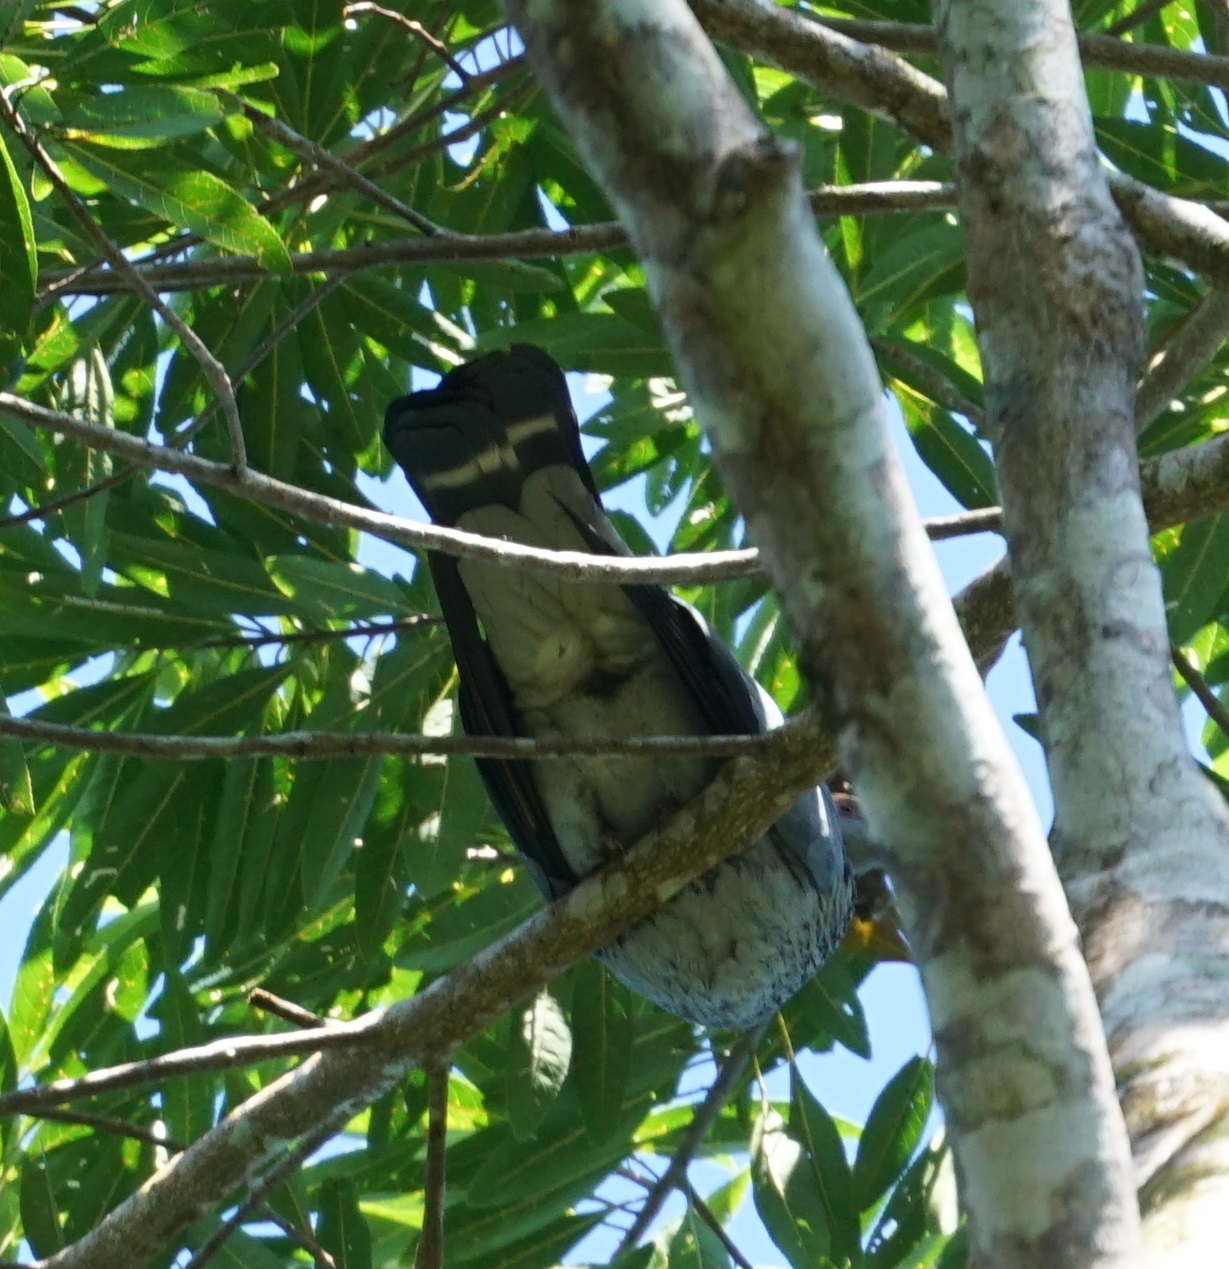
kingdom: Animalia
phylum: Chordata
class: Aves
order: Columbiformes
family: Columbidae
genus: Lopholaimus
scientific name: Lopholaimus antarcticus
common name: Topknot pigeon
